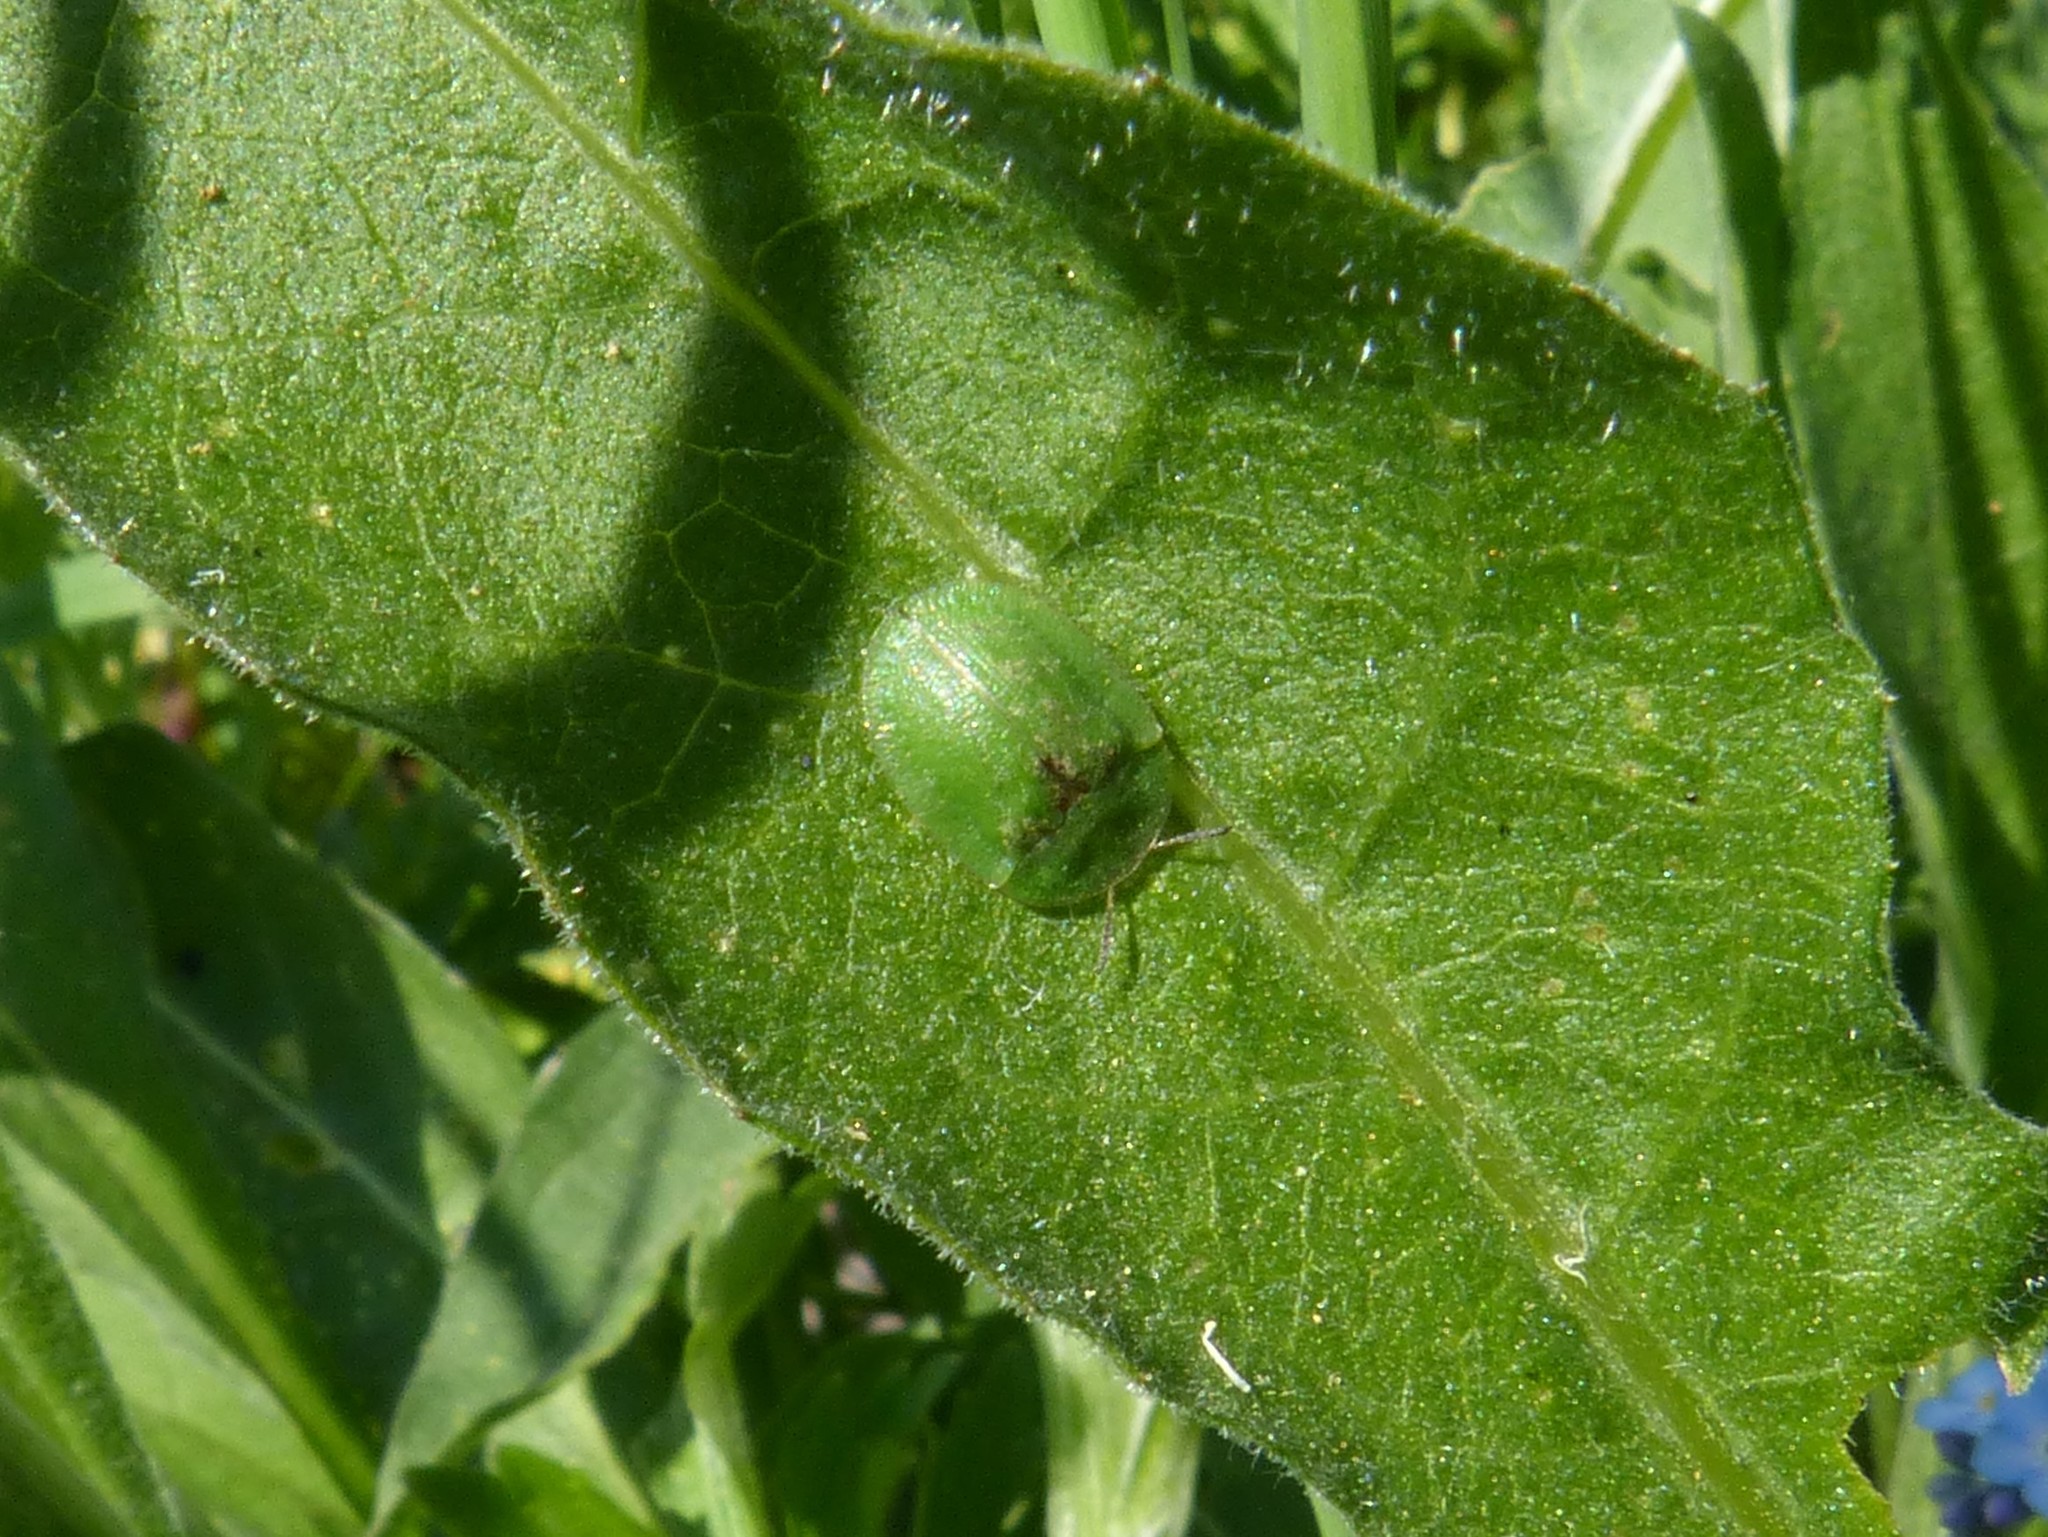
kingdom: Animalia
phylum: Arthropoda
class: Insecta
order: Coleoptera
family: Chrysomelidae
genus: Cassida
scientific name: Cassida rubiginosa
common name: Thistle tortoise beetle
